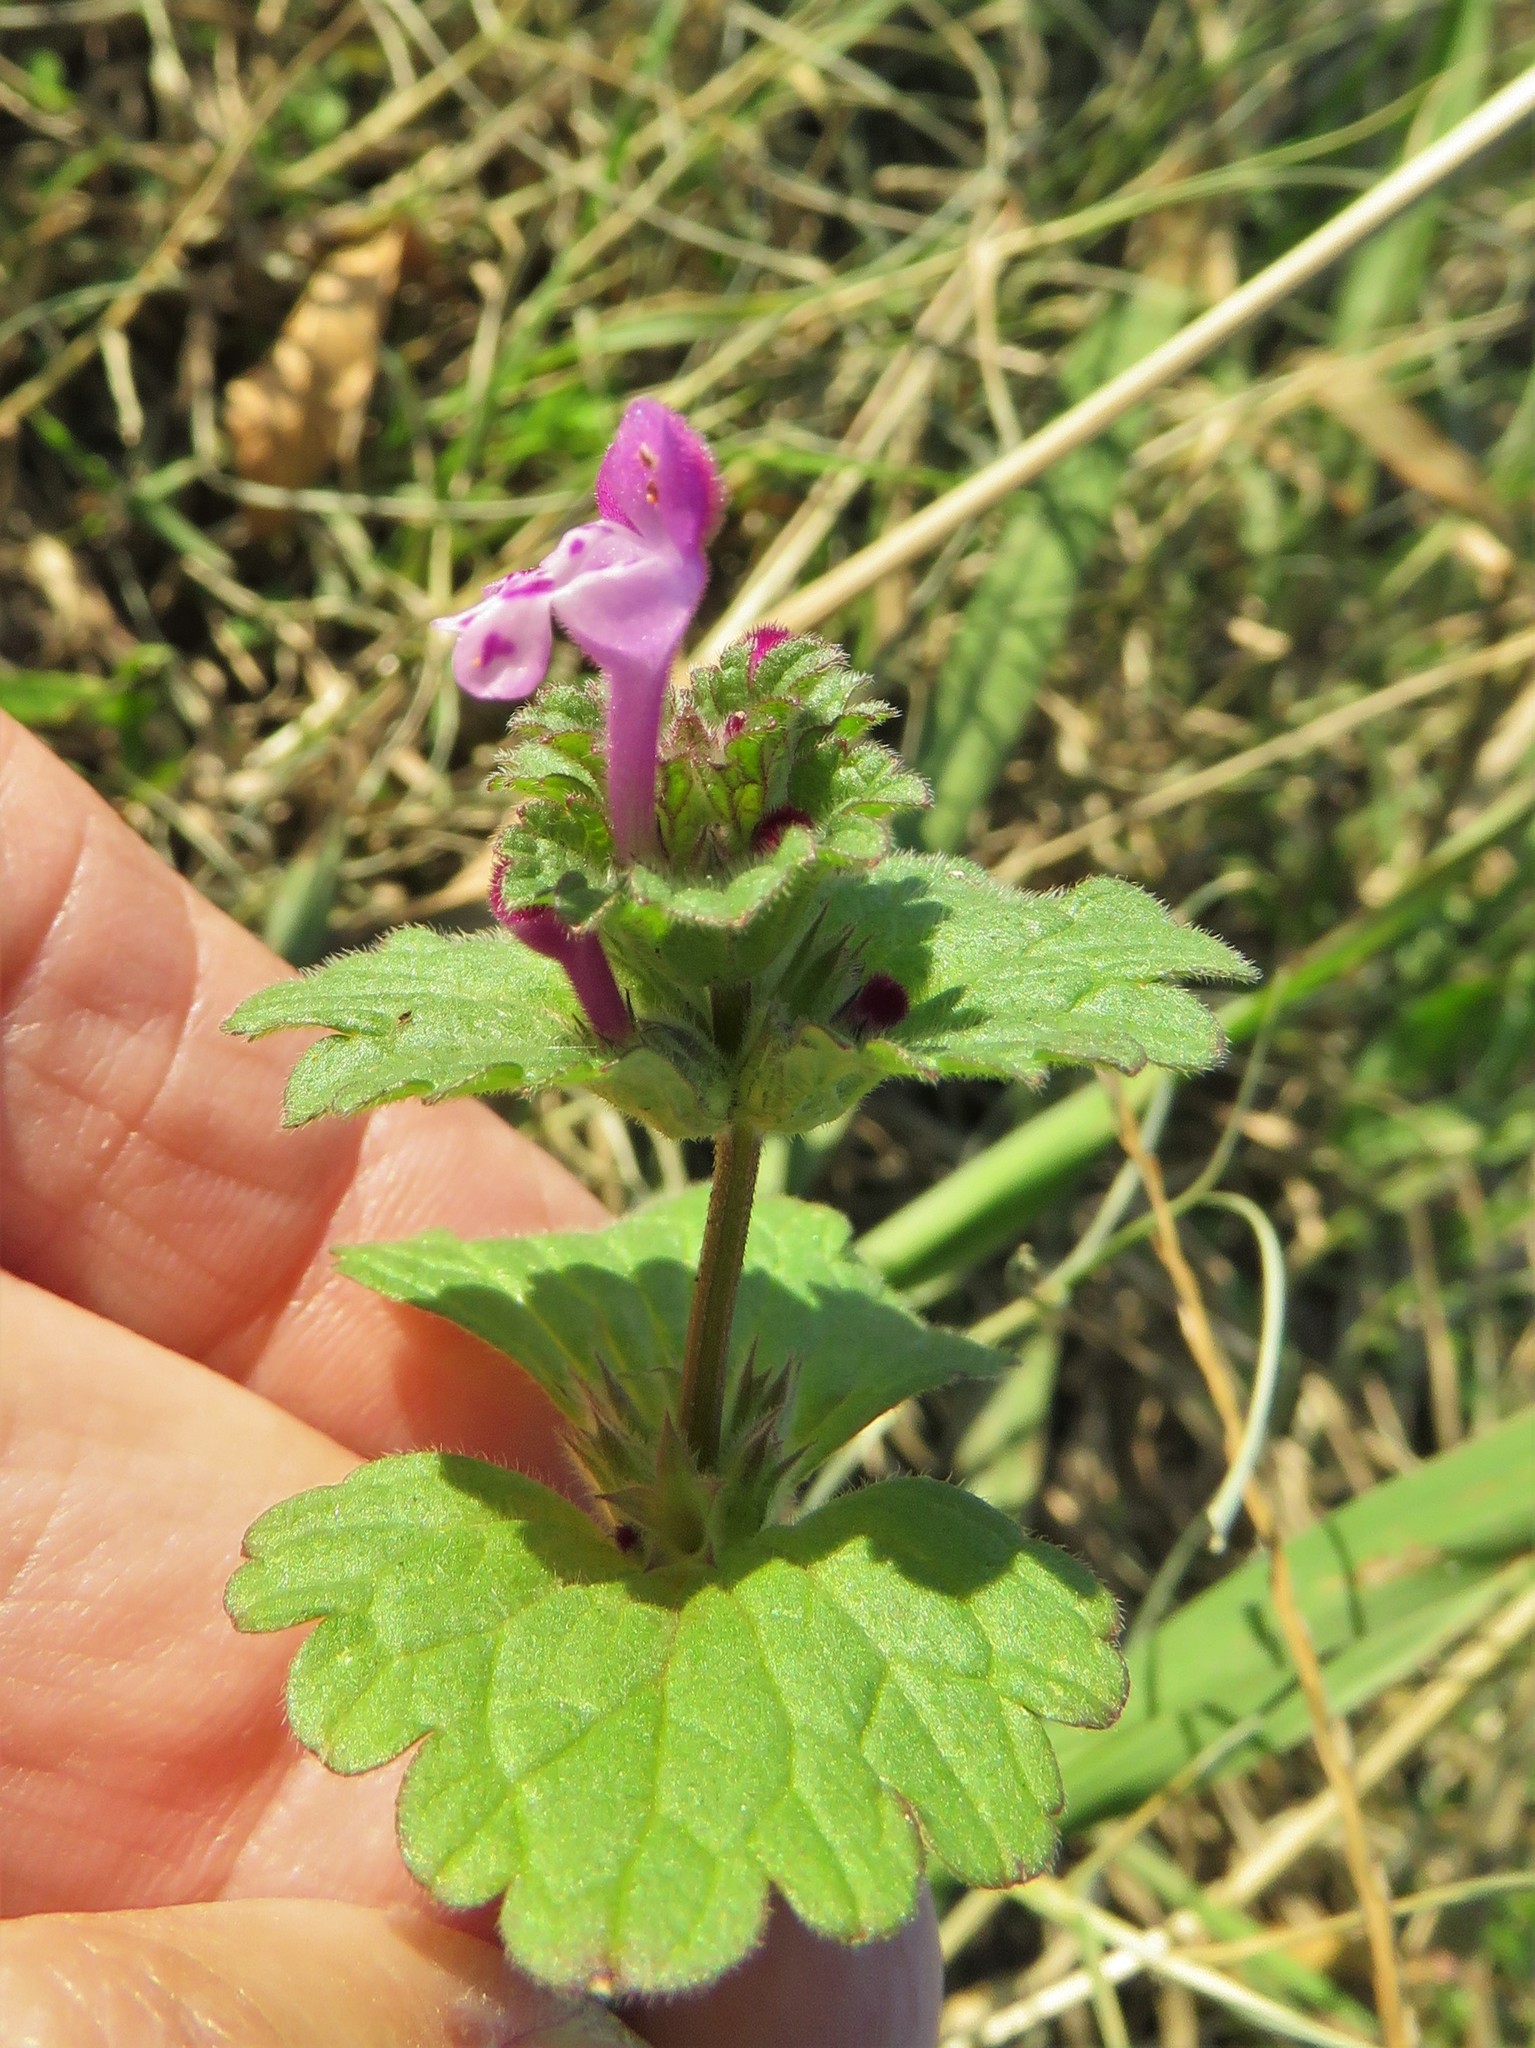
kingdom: Plantae
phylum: Tracheophyta
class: Magnoliopsida
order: Lamiales
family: Lamiaceae
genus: Lamium
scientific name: Lamium amplexicaule
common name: Henbit dead-nettle
